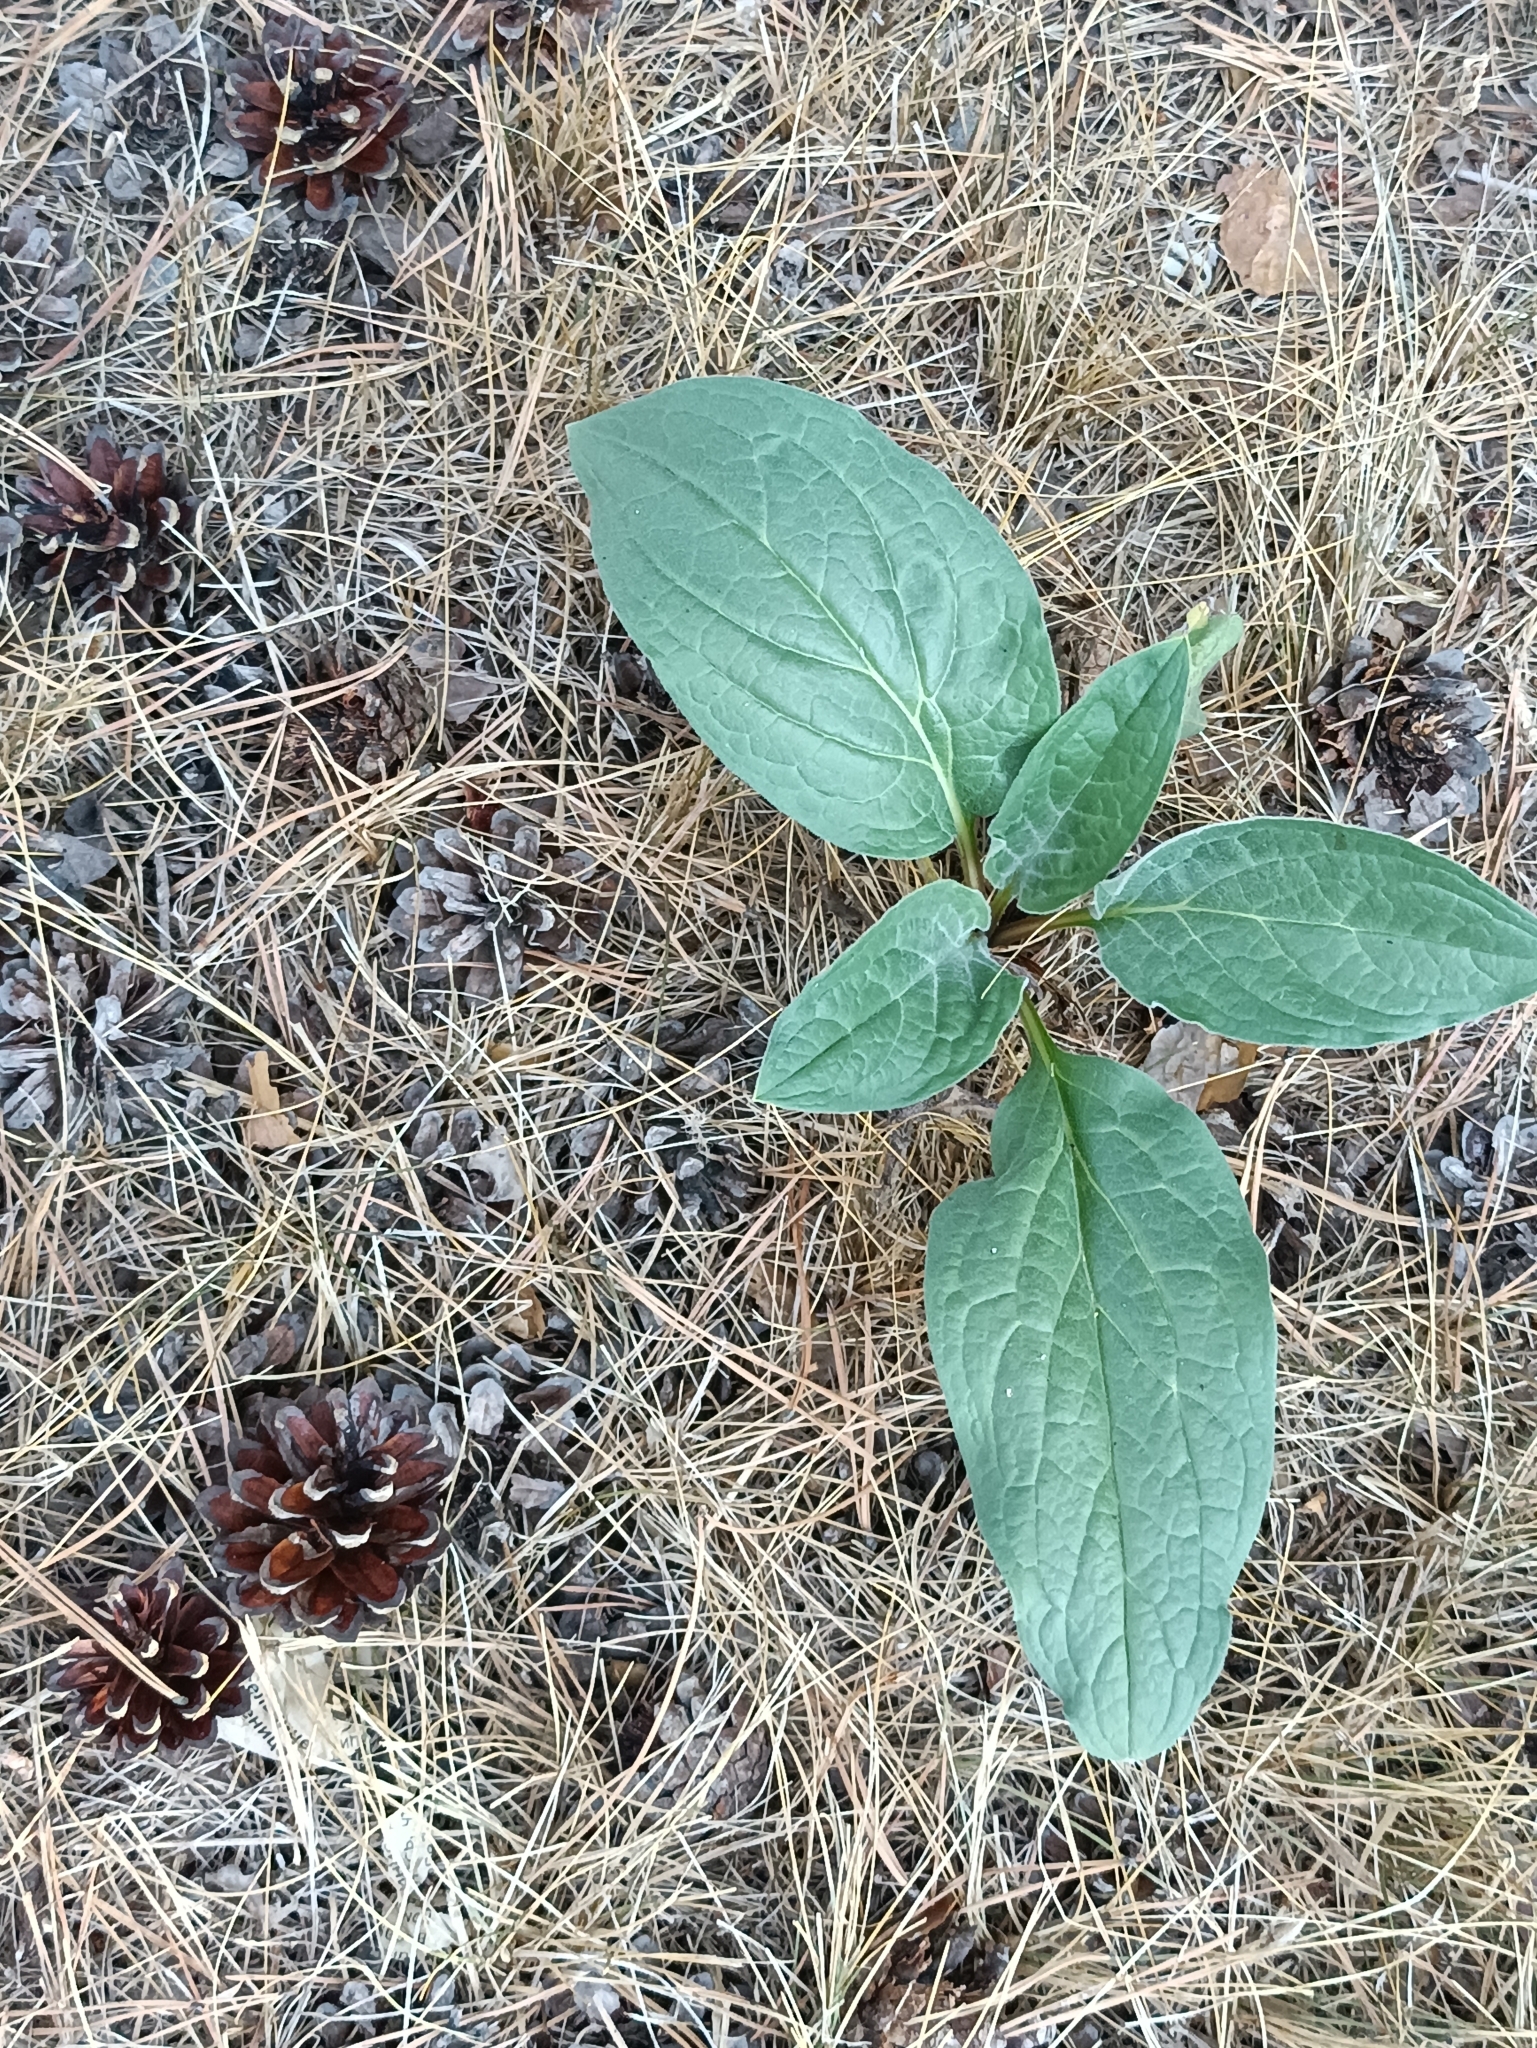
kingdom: Plantae
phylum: Tracheophyta
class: Magnoliopsida
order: Boraginales
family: Boraginaceae
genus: Cynoglossum
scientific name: Cynoglossum officinale
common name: Hound's-tongue
